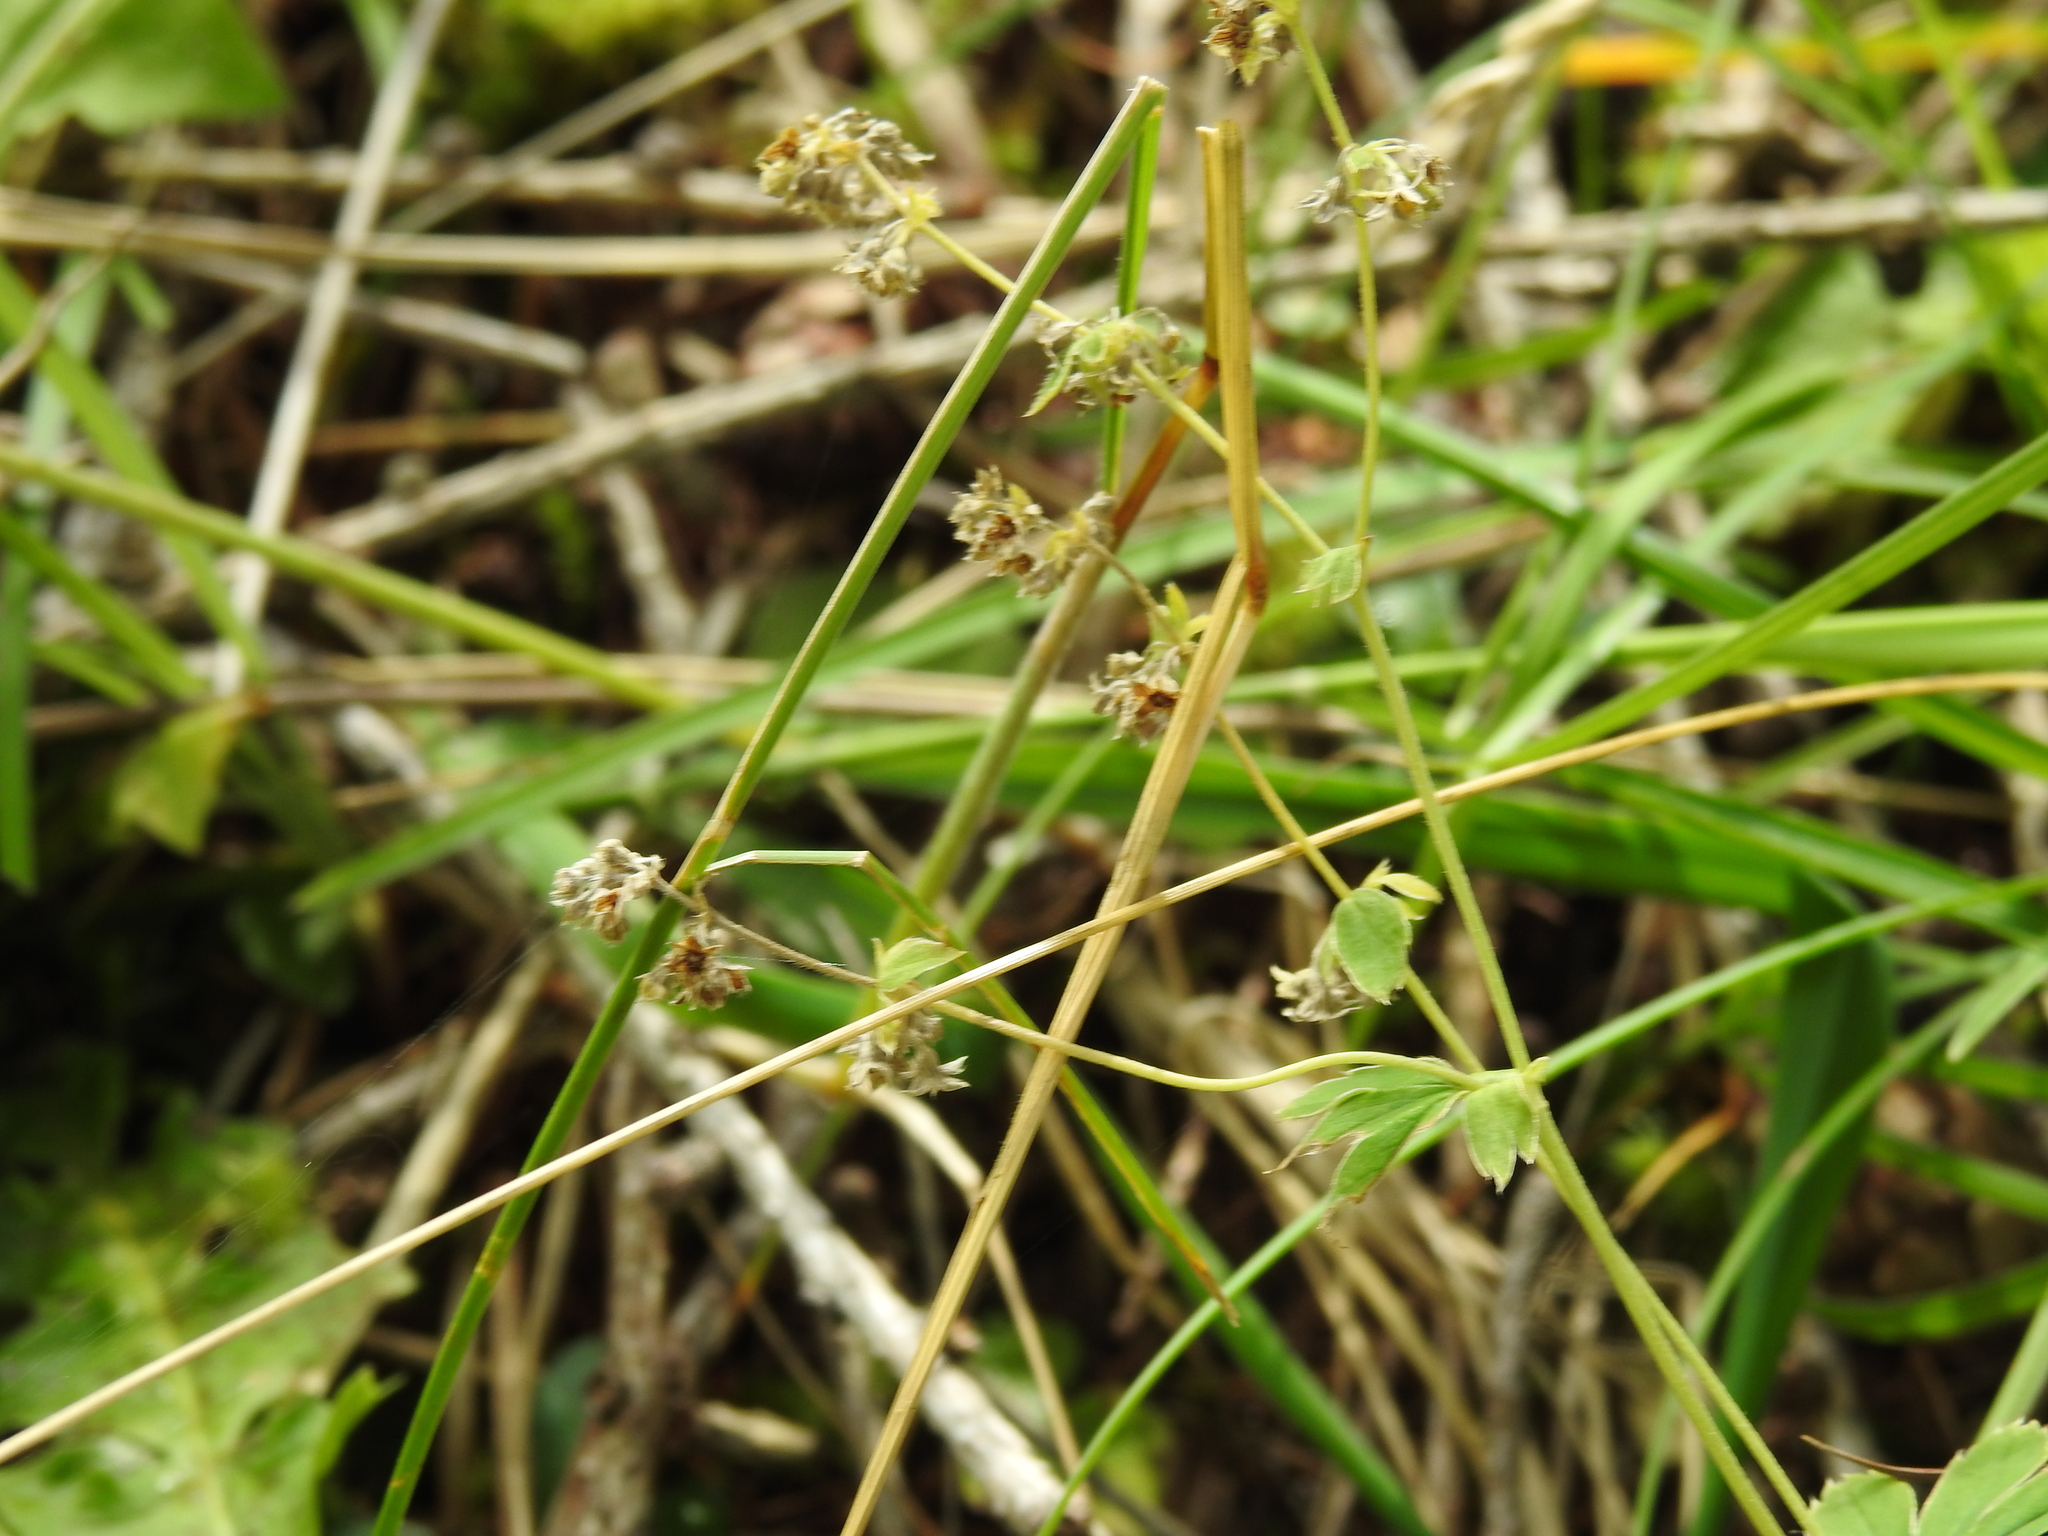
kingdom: Plantae
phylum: Tracheophyta
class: Magnoliopsida
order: Rosales
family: Rosaceae
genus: Alchemilla
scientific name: Alchemilla pallens
